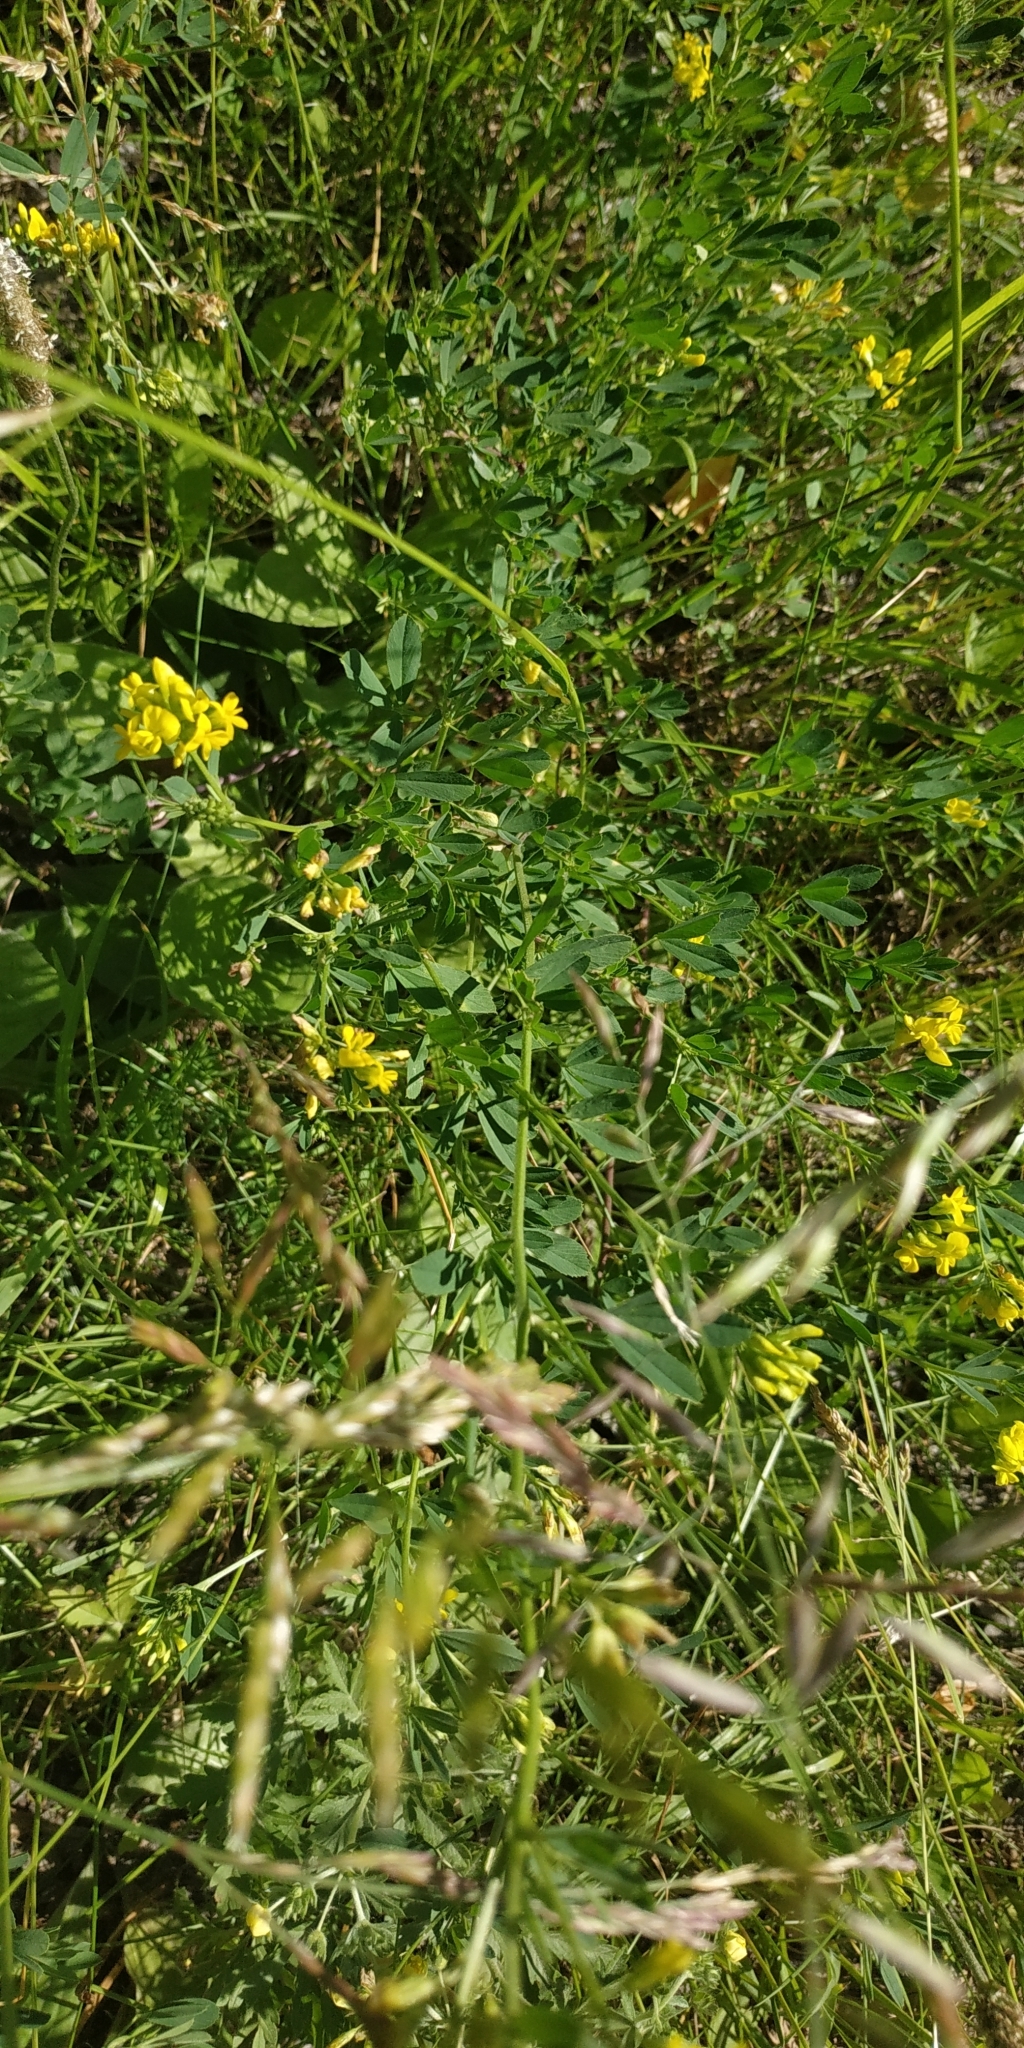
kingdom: Plantae
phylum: Tracheophyta
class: Magnoliopsida
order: Fabales
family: Fabaceae
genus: Medicago
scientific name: Medicago falcata
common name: Sickle medick
